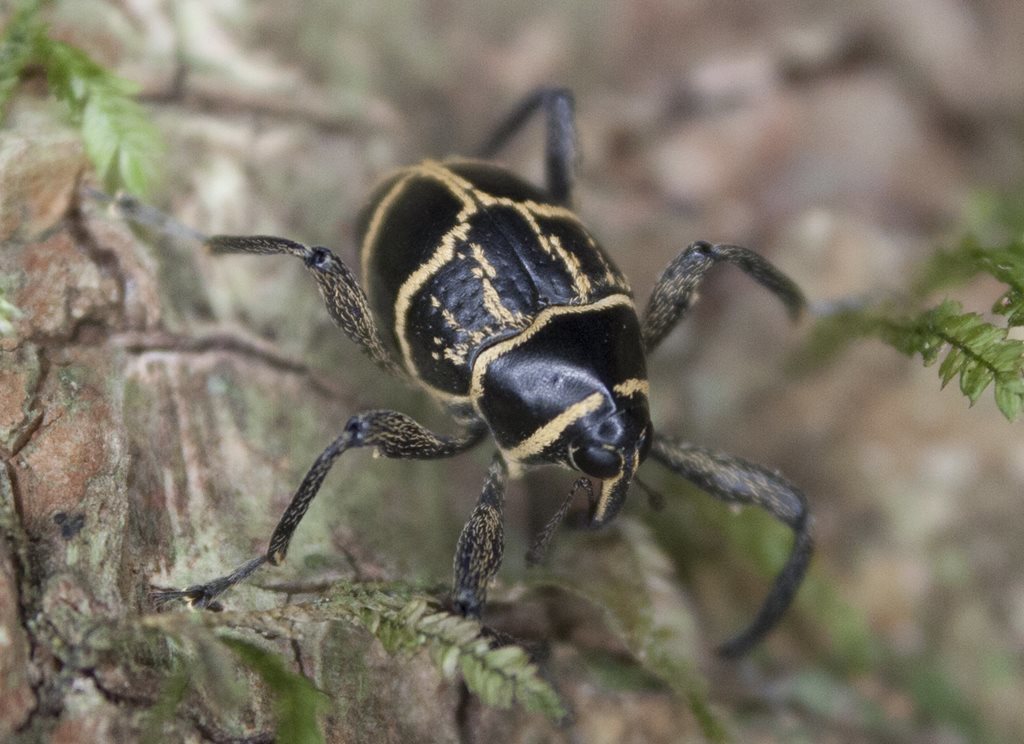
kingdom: Animalia
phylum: Arthropoda
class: Insecta
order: Coleoptera
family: Curculionidae
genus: Enteles
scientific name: Enteles vigorsii
